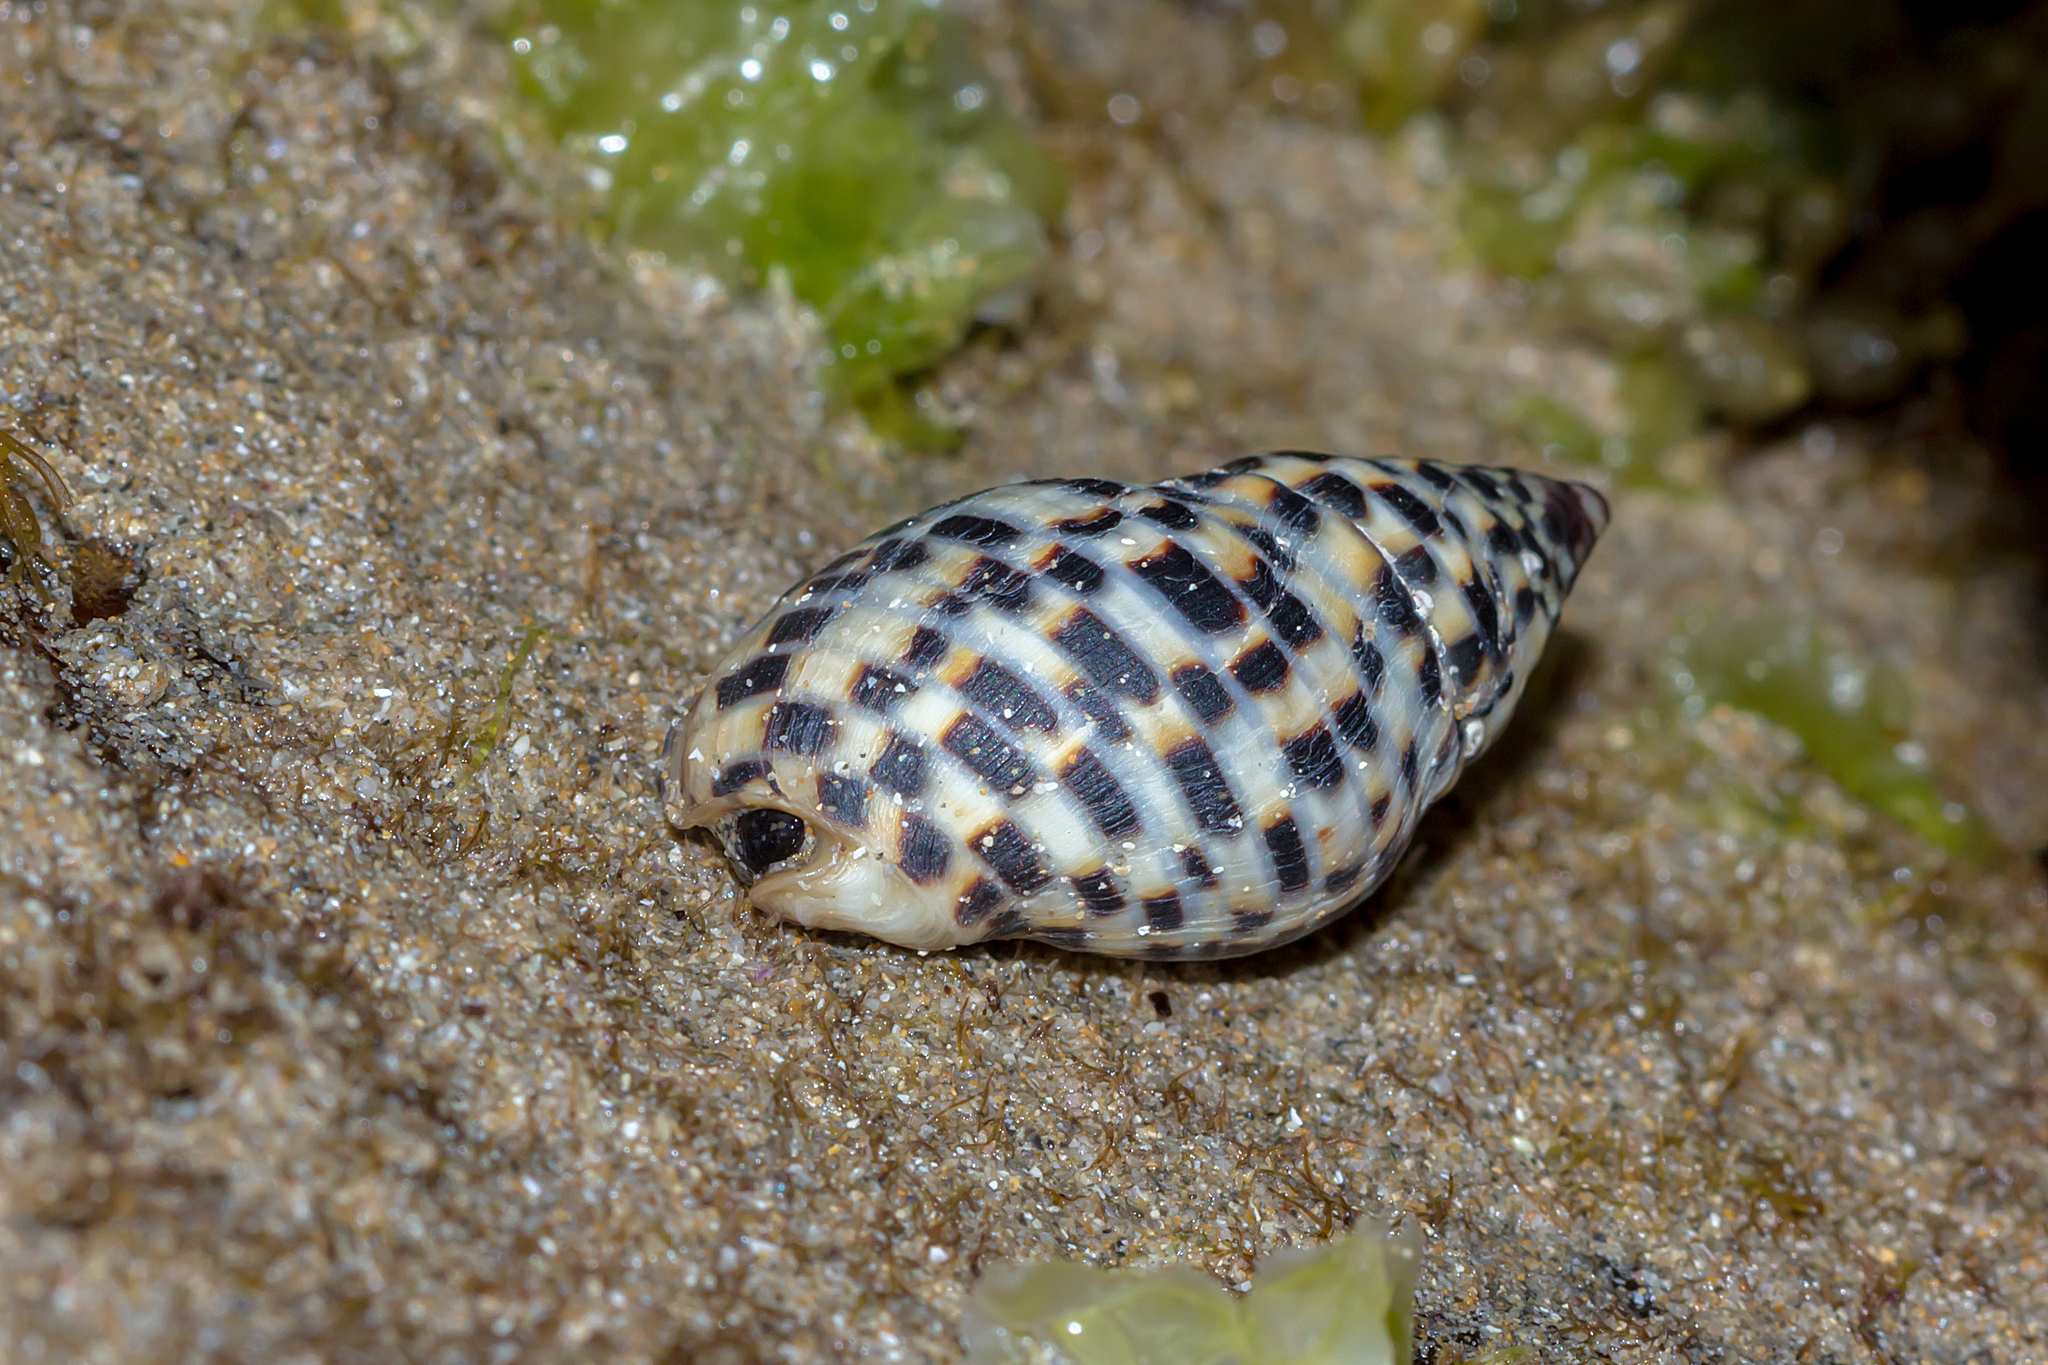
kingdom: Animalia
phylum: Mollusca
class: Gastropoda
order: Neogastropoda
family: Cominellidae
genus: Cominella
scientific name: Cominella lineolata
